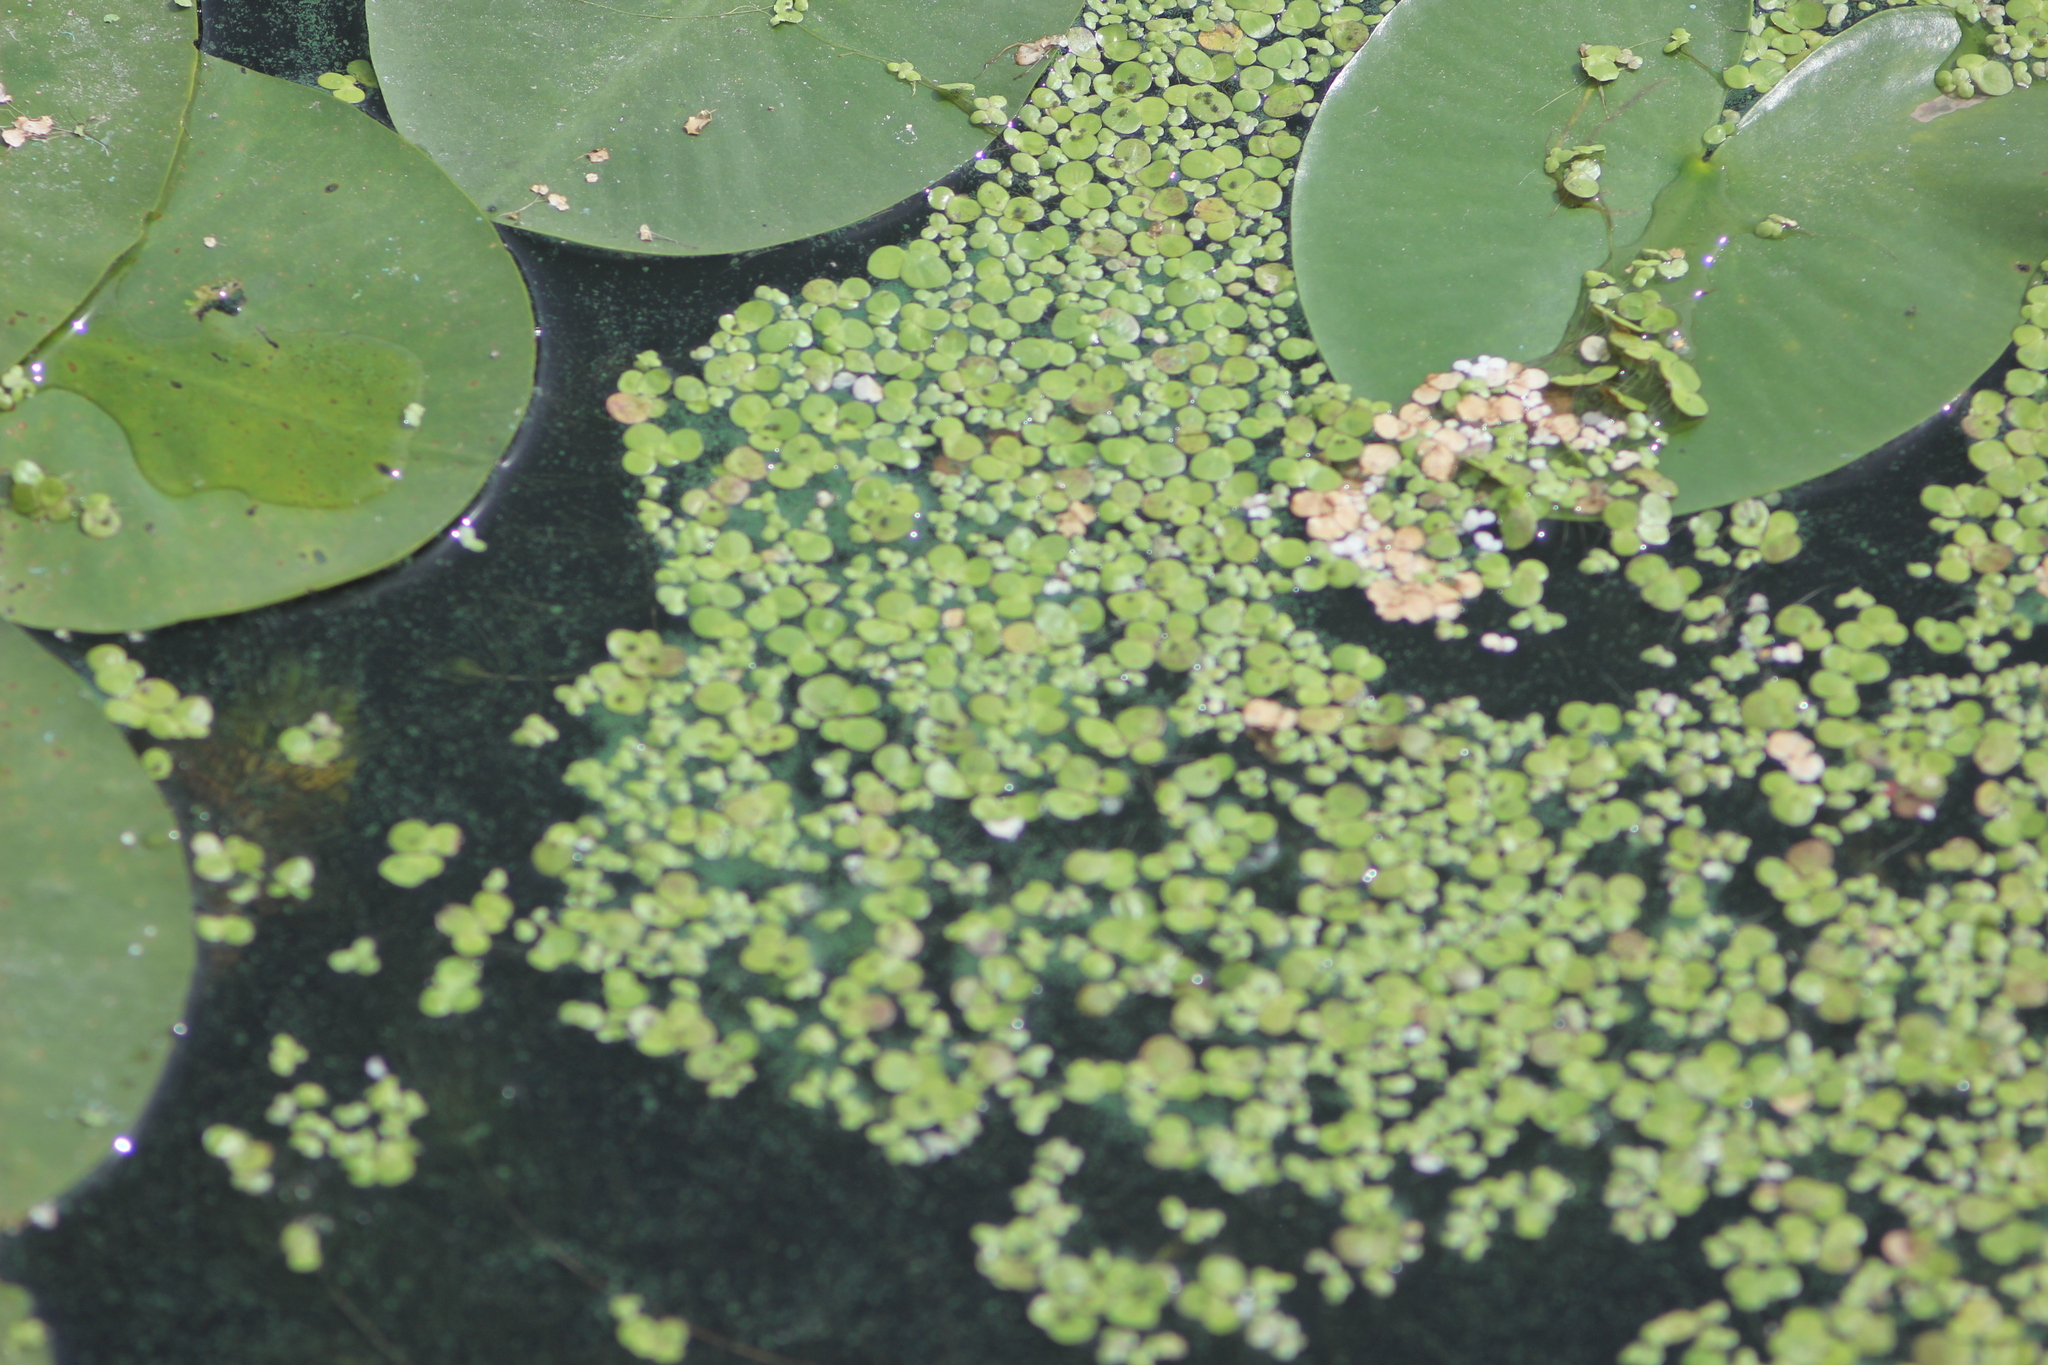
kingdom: Plantae
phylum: Tracheophyta
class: Liliopsida
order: Alismatales
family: Araceae
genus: Spirodela
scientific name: Spirodela polyrhiza
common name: Great duckweed
